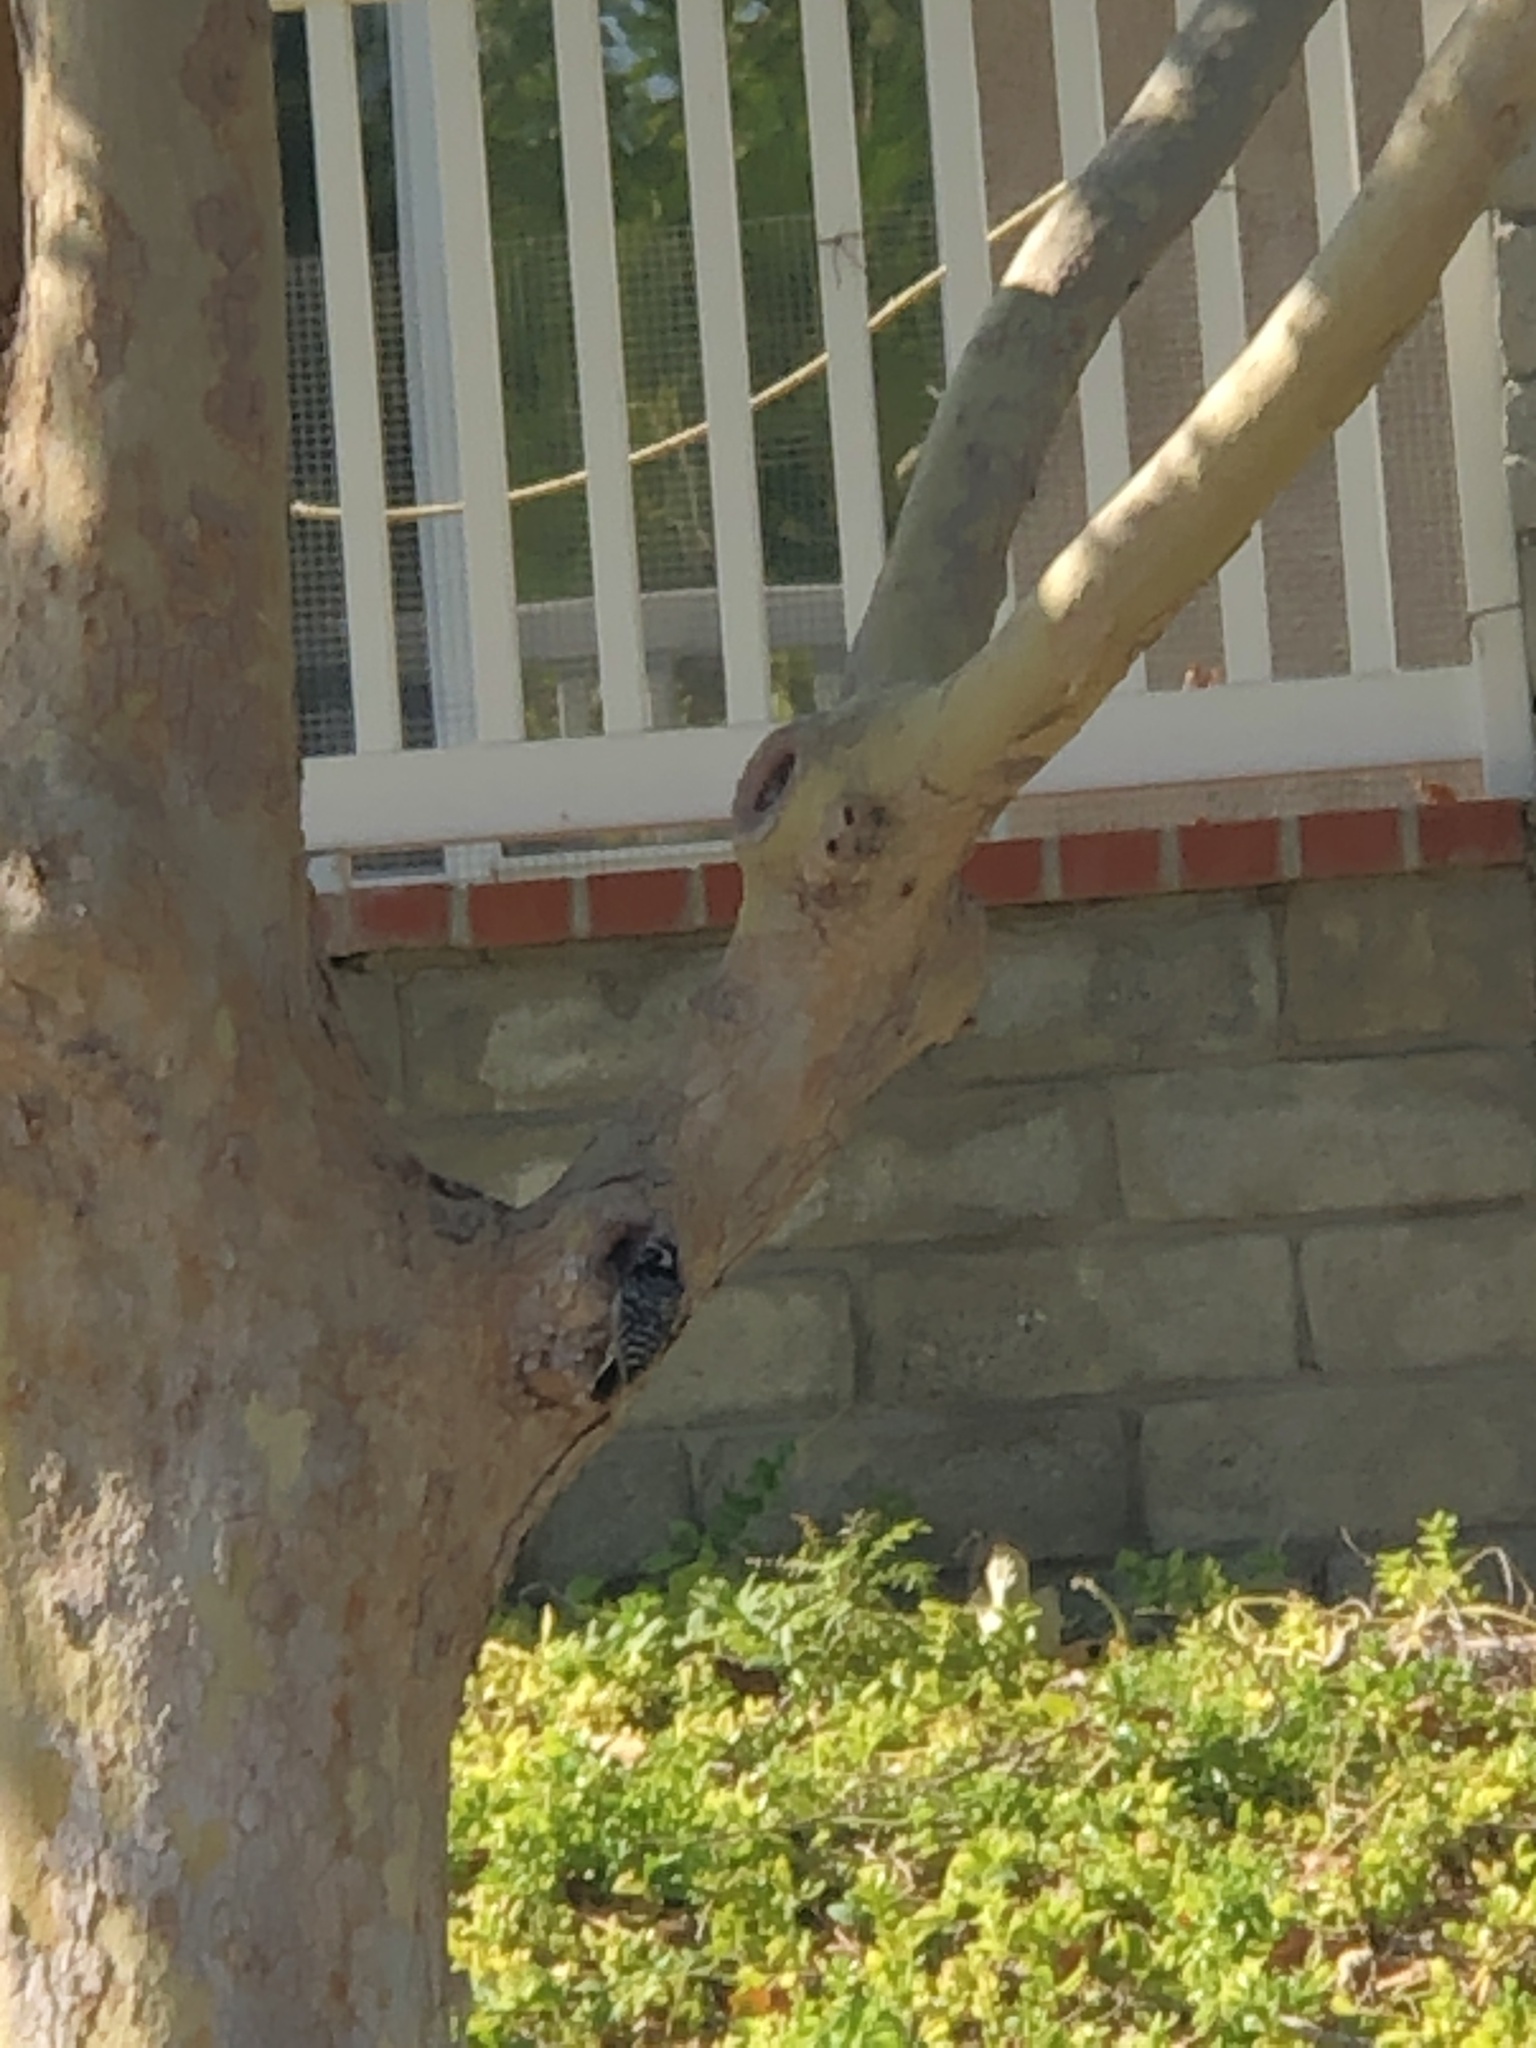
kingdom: Animalia
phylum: Chordata
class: Aves
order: Piciformes
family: Picidae
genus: Dryobates
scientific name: Dryobates nuttallii
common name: Nuttall's woodpecker
